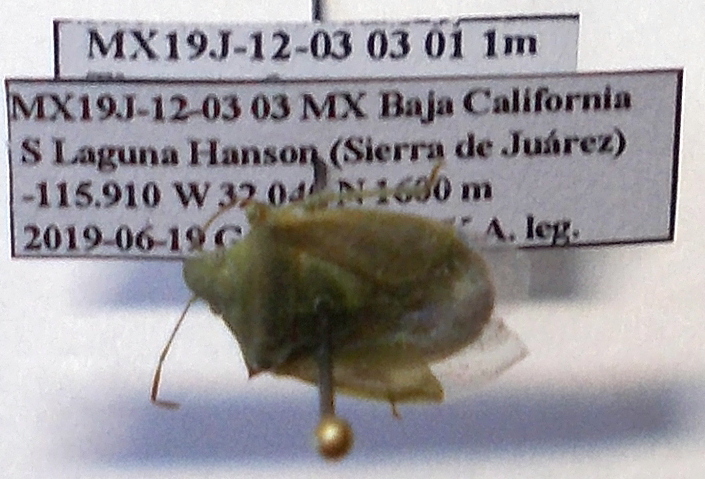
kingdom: Animalia
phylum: Arthropoda
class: Insecta
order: Hemiptera
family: Pentatomidae
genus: Thyanta
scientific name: Thyanta custator
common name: Stink bug
